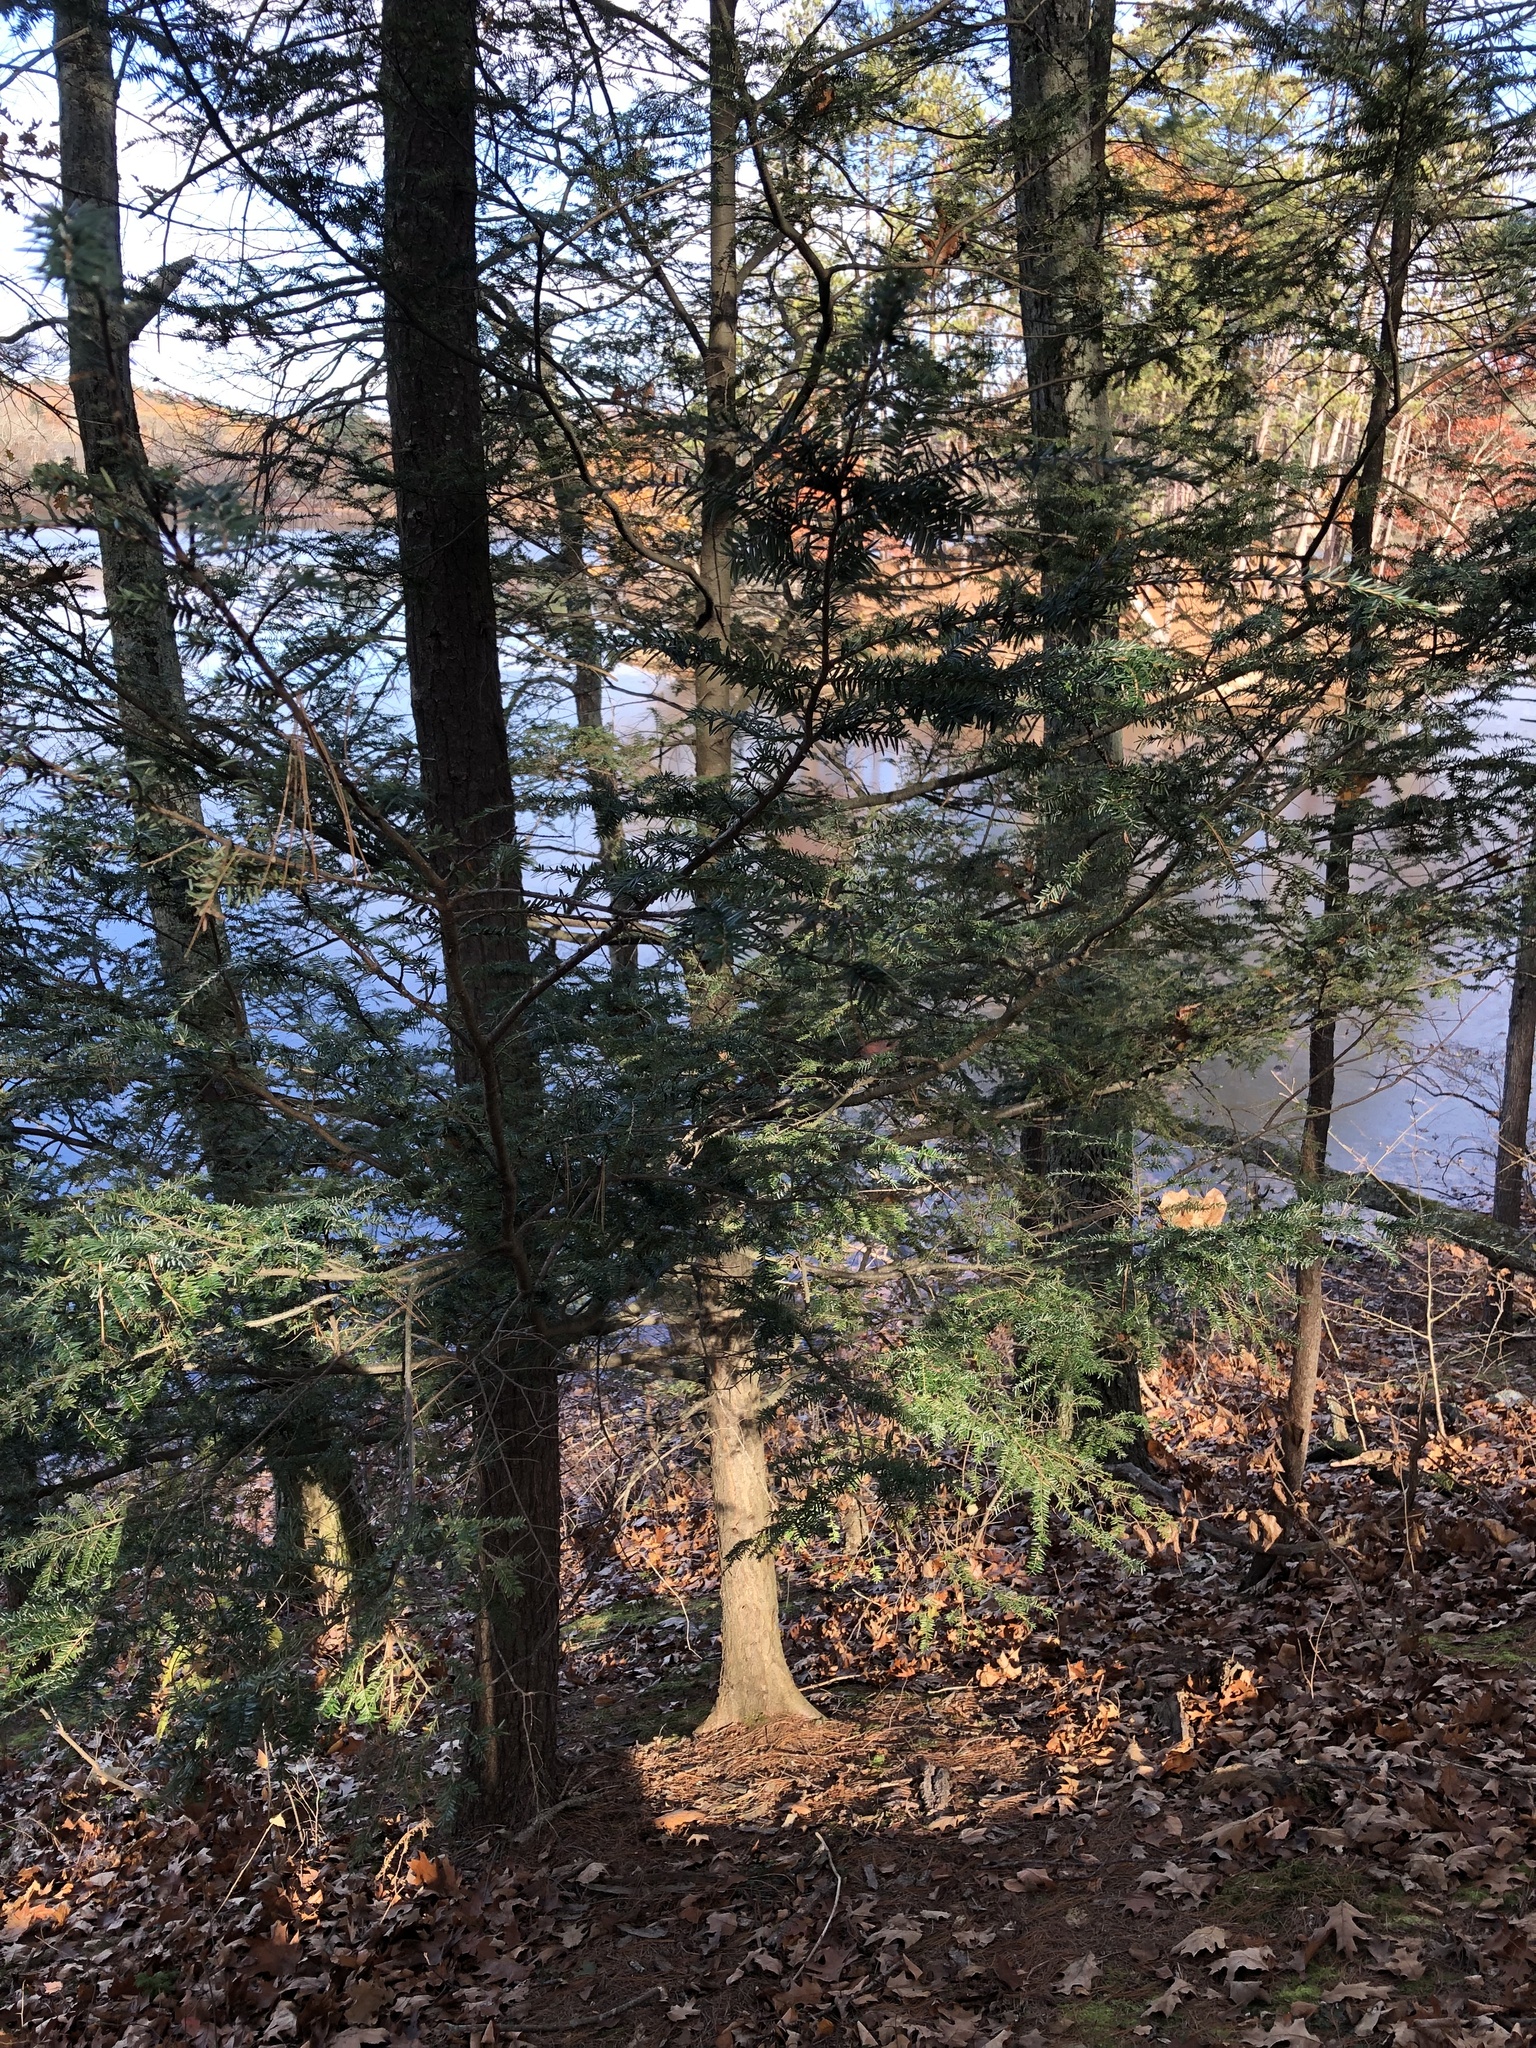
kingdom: Plantae
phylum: Tracheophyta
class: Pinopsida
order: Pinales
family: Pinaceae
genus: Tsuga
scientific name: Tsuga canadensis
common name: Eastern hemlock
